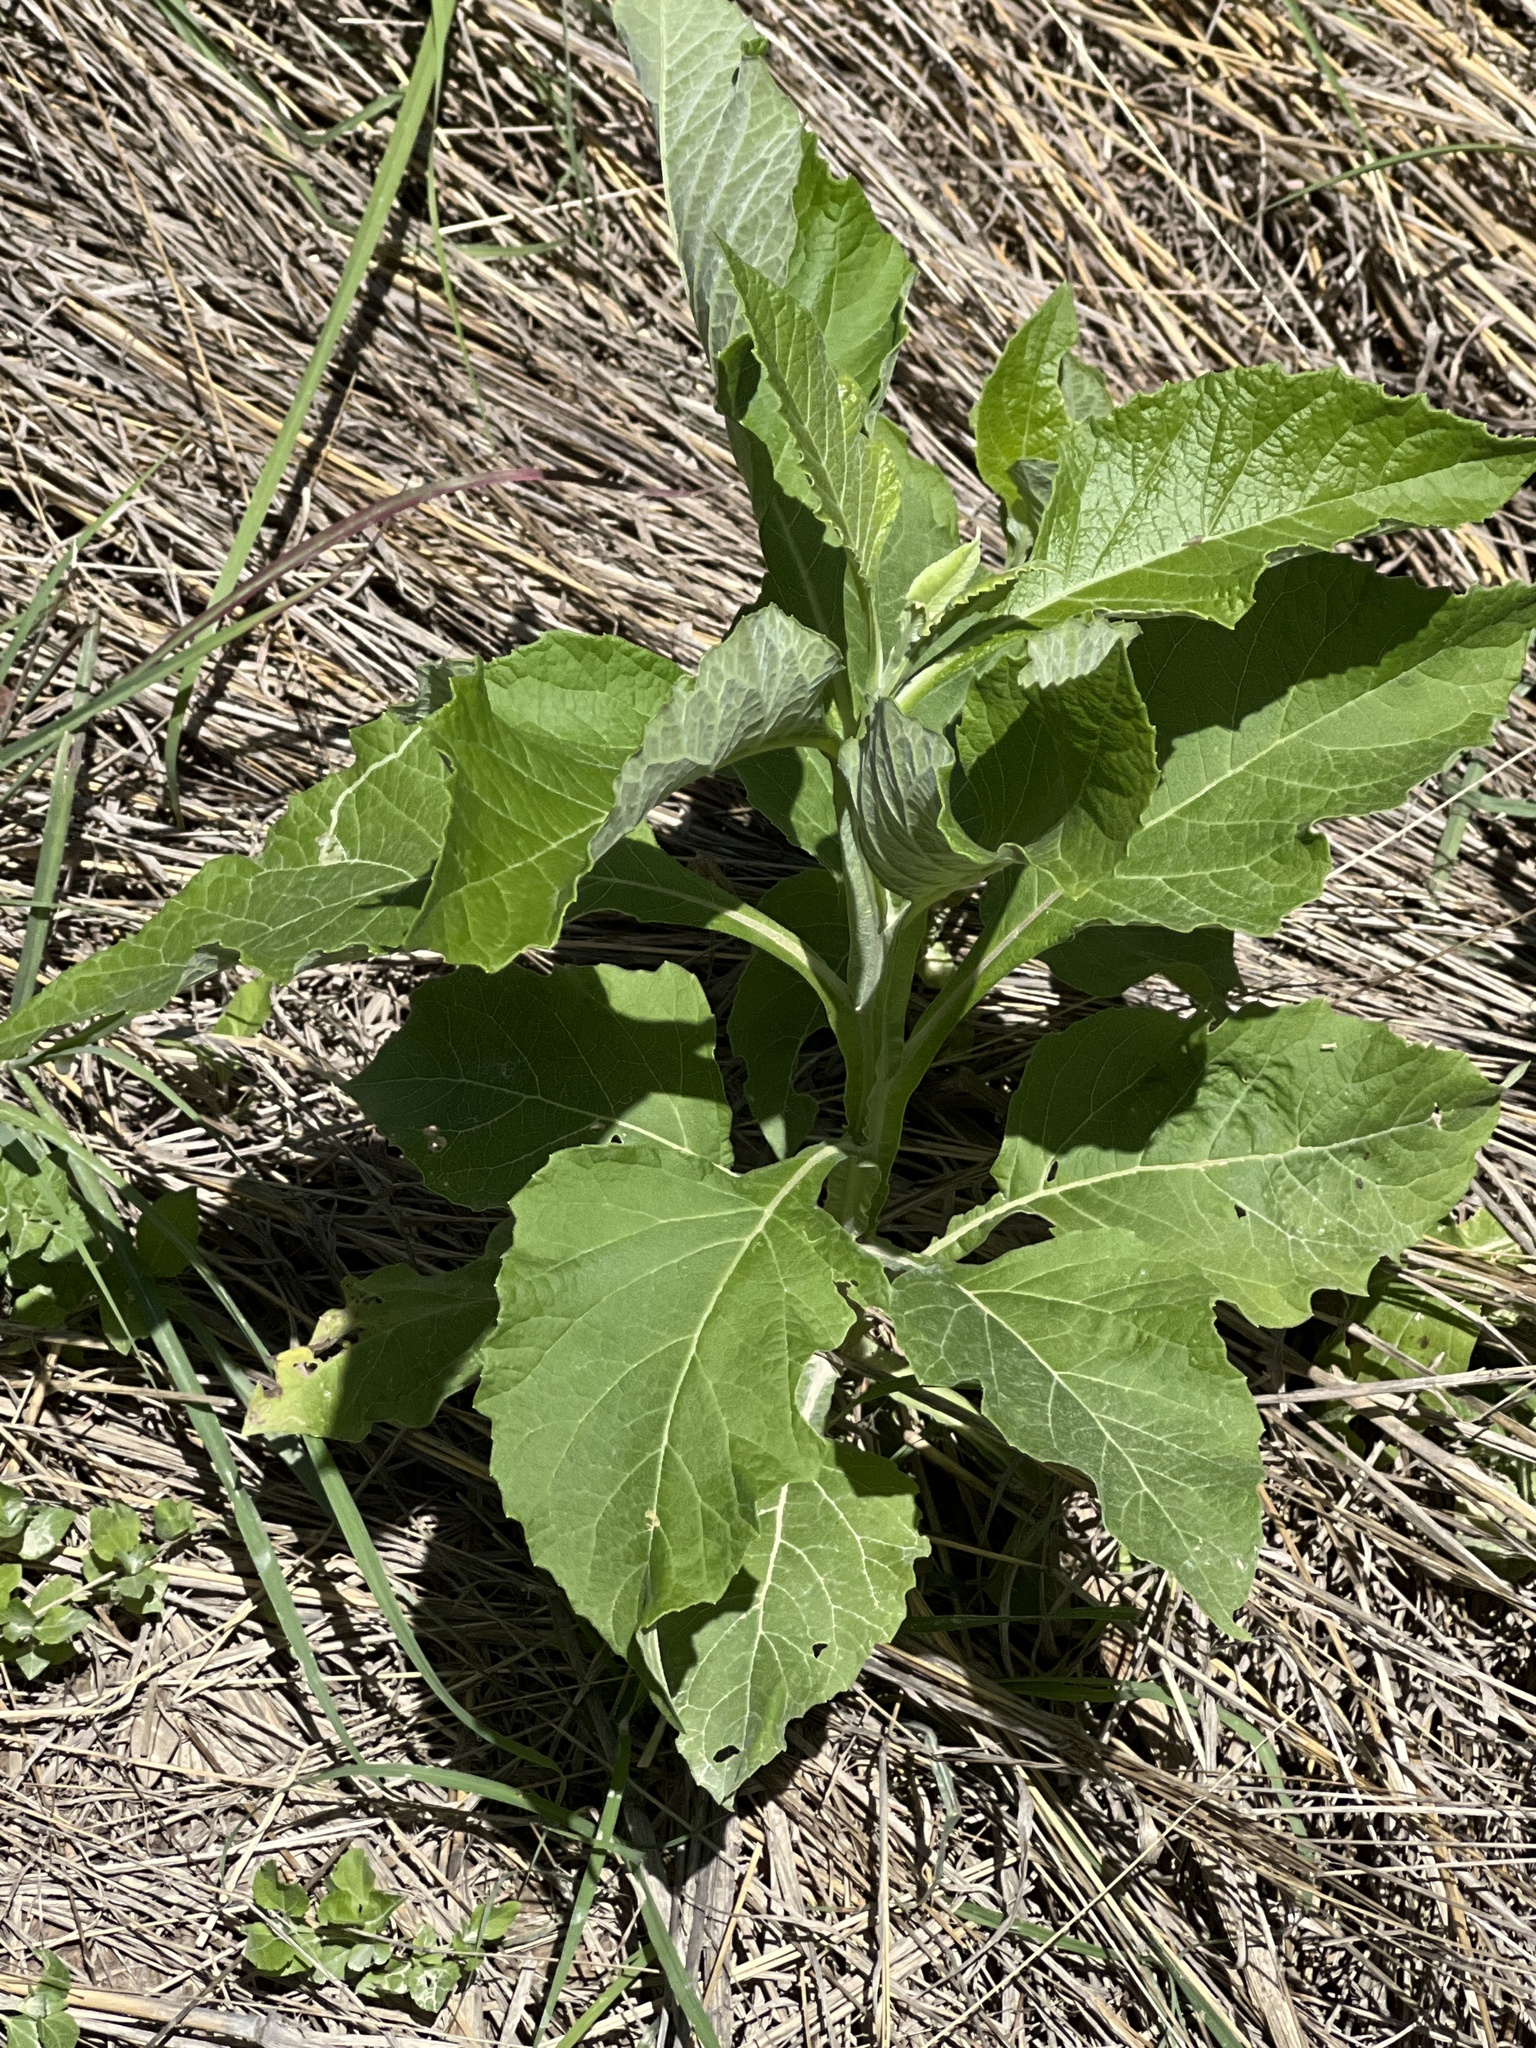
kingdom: Plantae
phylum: Tracheophyta
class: Magnoliopsida
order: Asterales
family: Asteraceae
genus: Verbesina
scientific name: Verbesina virginica
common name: Frostweed
